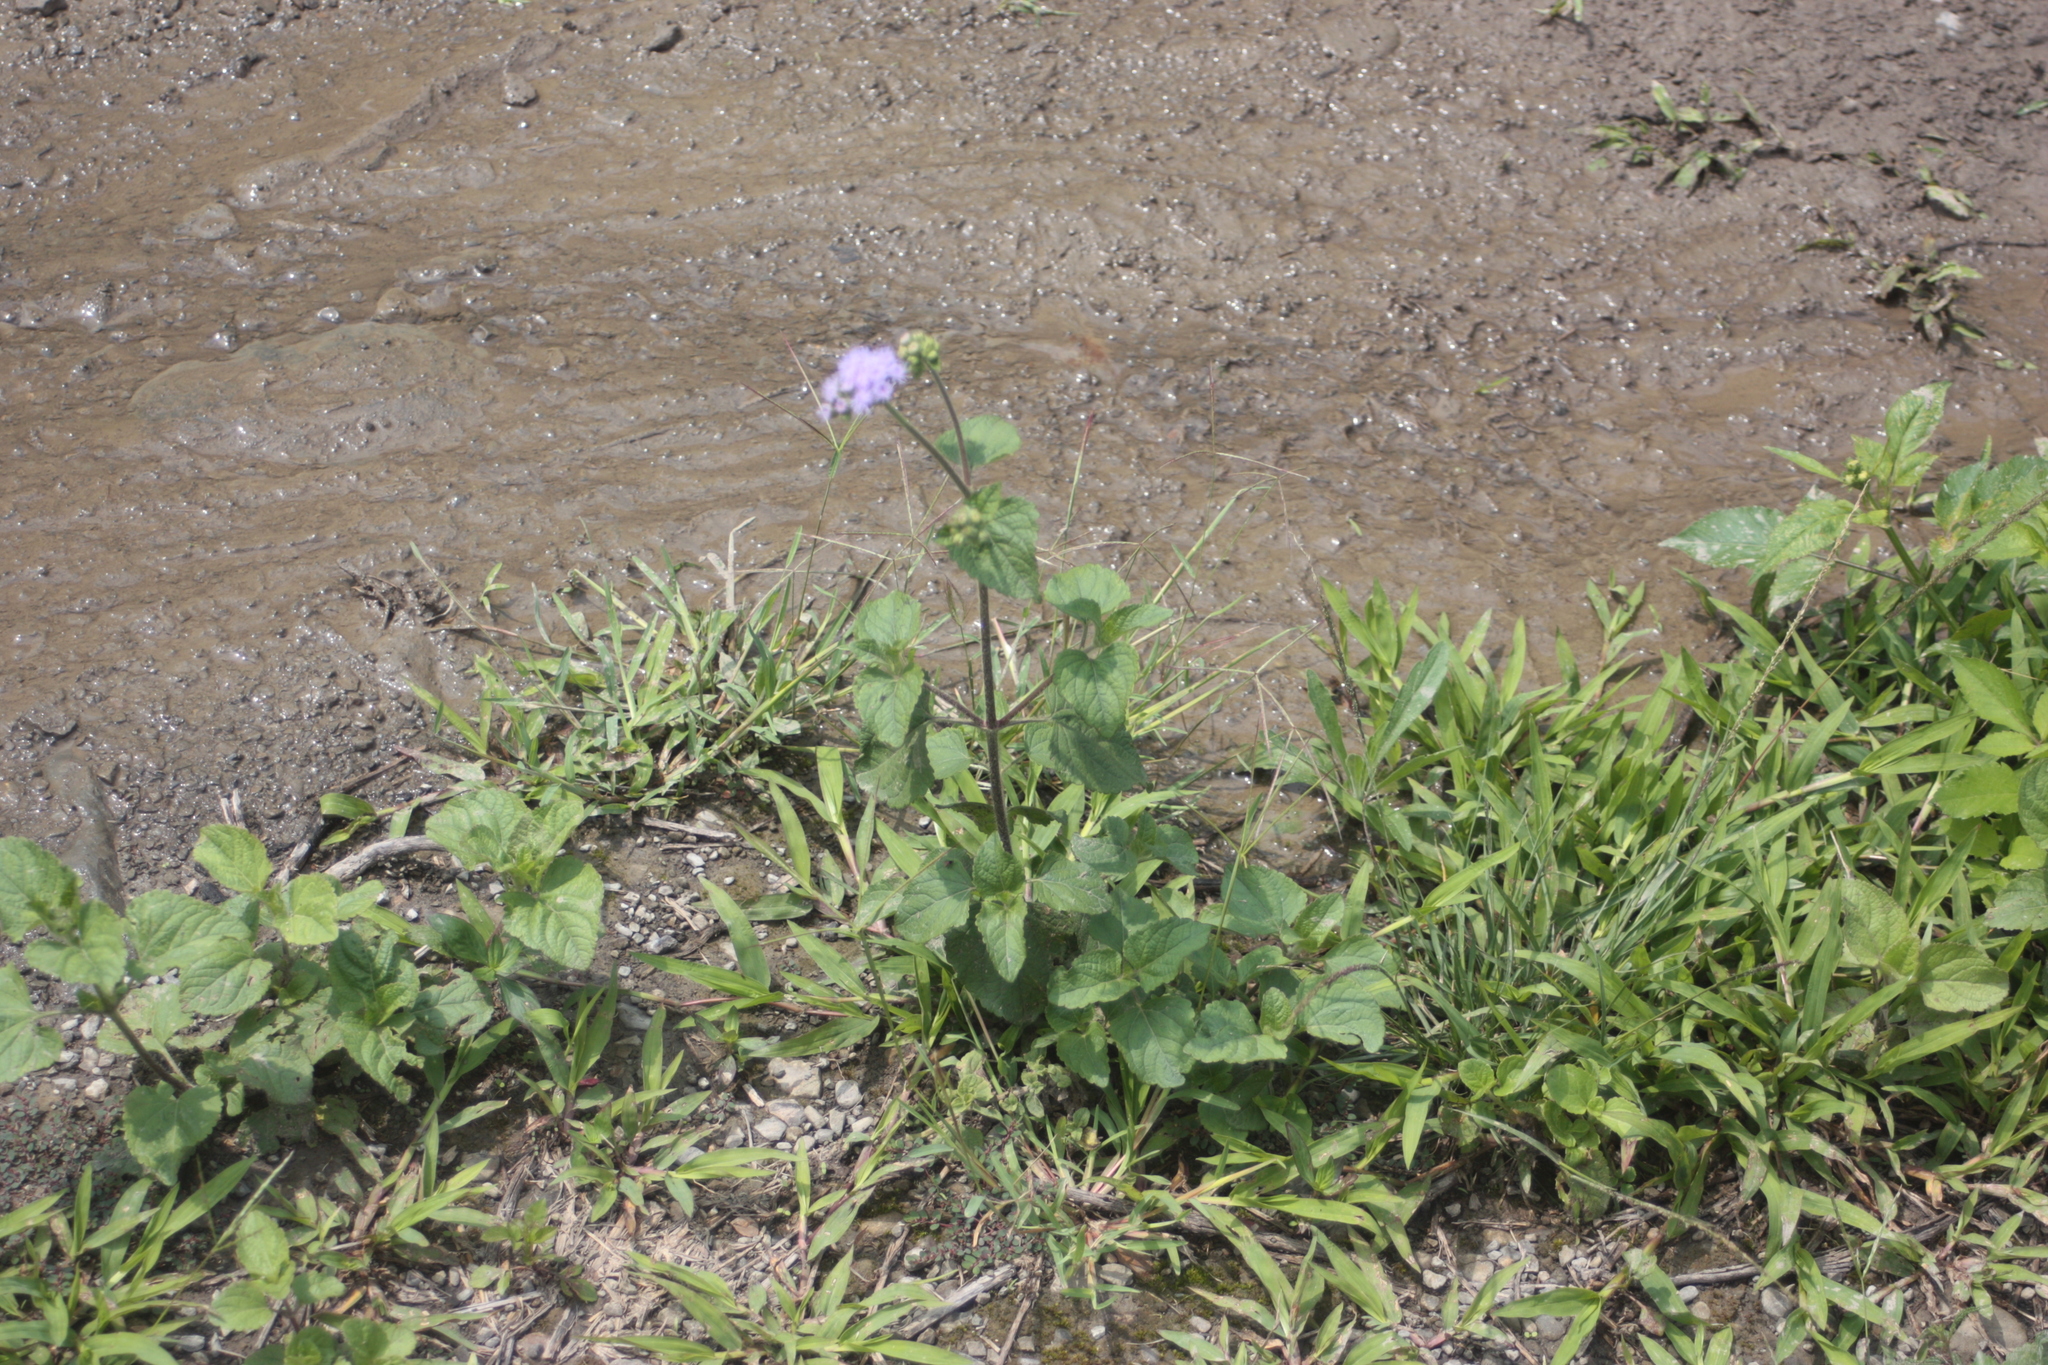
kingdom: Plantae
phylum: Tracheophyta
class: Magnoliopsida
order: Asterales
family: Asteraceae
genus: Ageratum
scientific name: Ageratum houstonianum
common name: Bluemink
